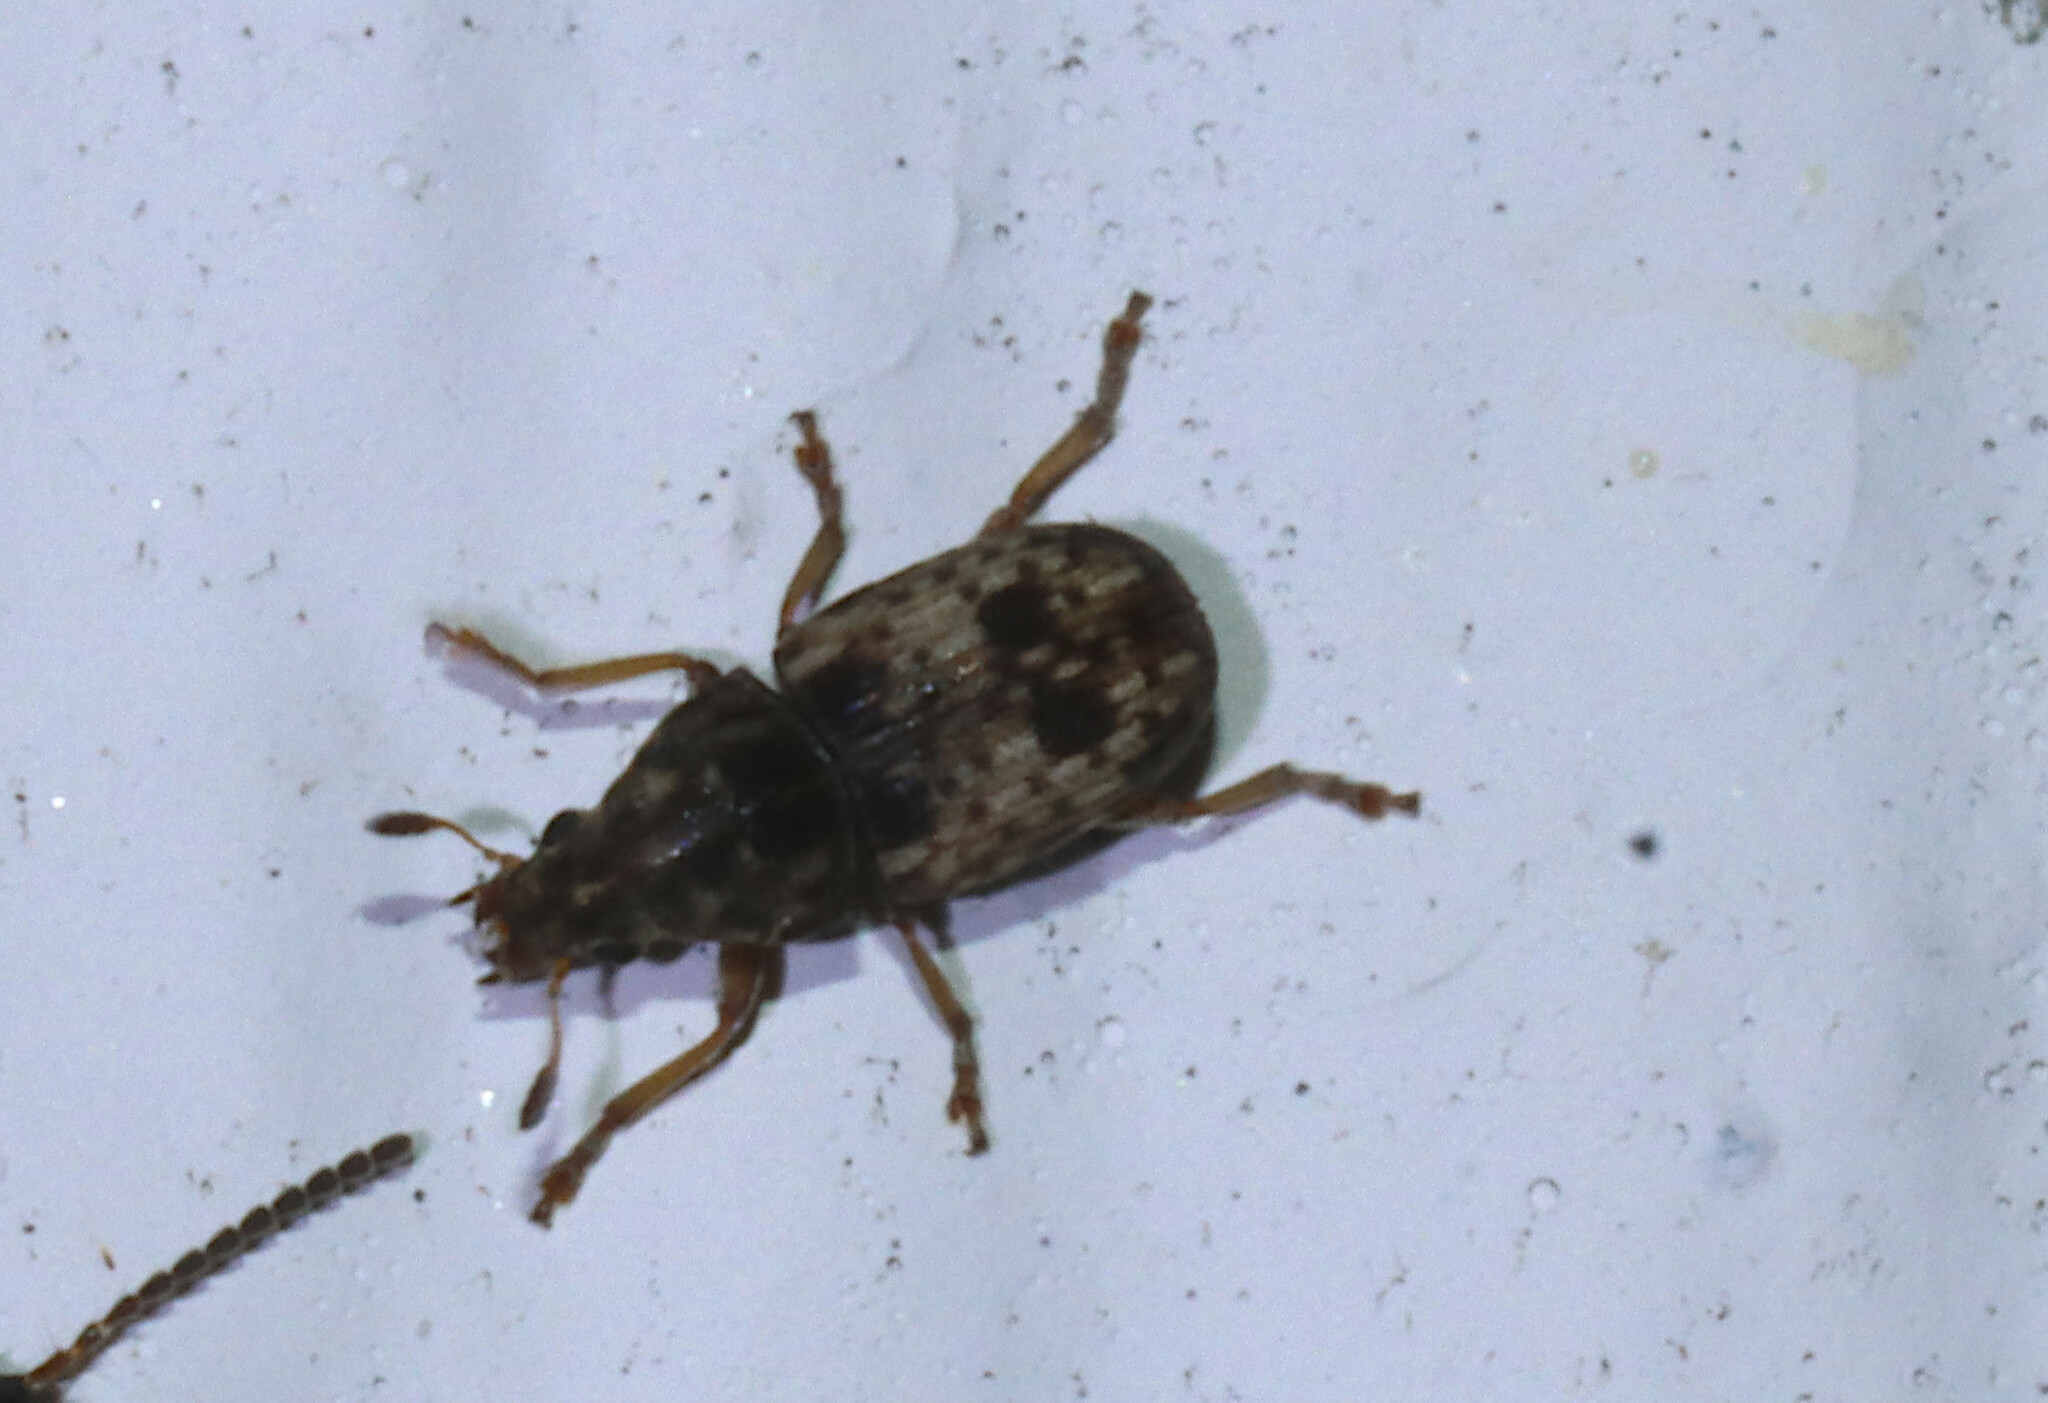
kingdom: Animalia
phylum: Arthropoda
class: Insecta
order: Coleoptera
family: Anthribidae
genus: Trigonorhinus
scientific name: Trigonorhinus sticticus
